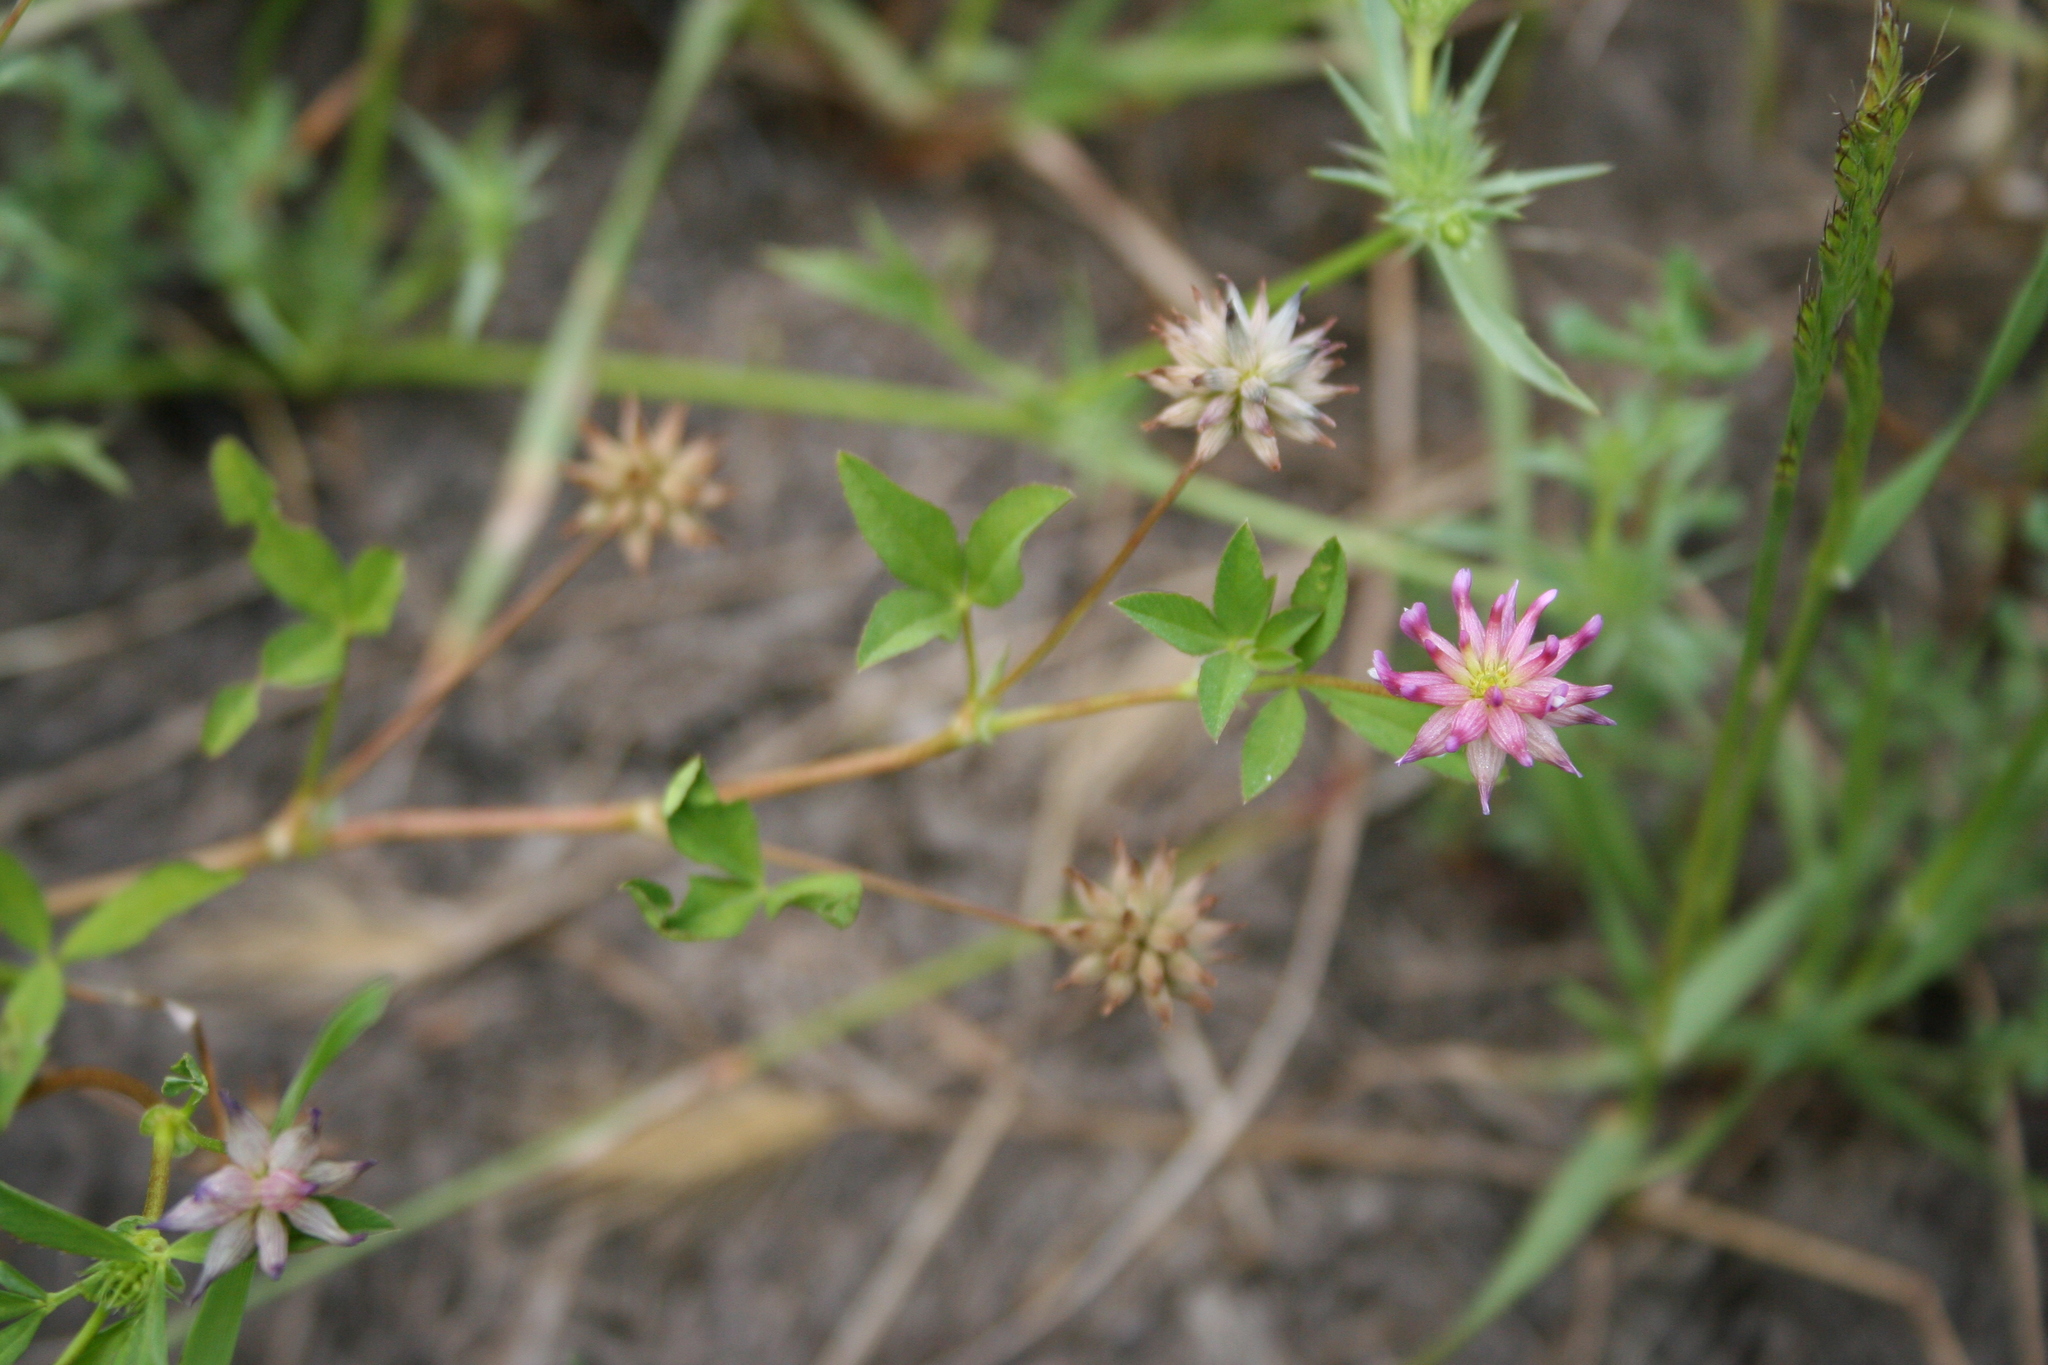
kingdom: Plantae
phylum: Tracheophyta
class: Magnoliopsida
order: Fabales
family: Fabaceae
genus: Trifolium
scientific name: Trifolium depauperatum
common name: Poverty clover
